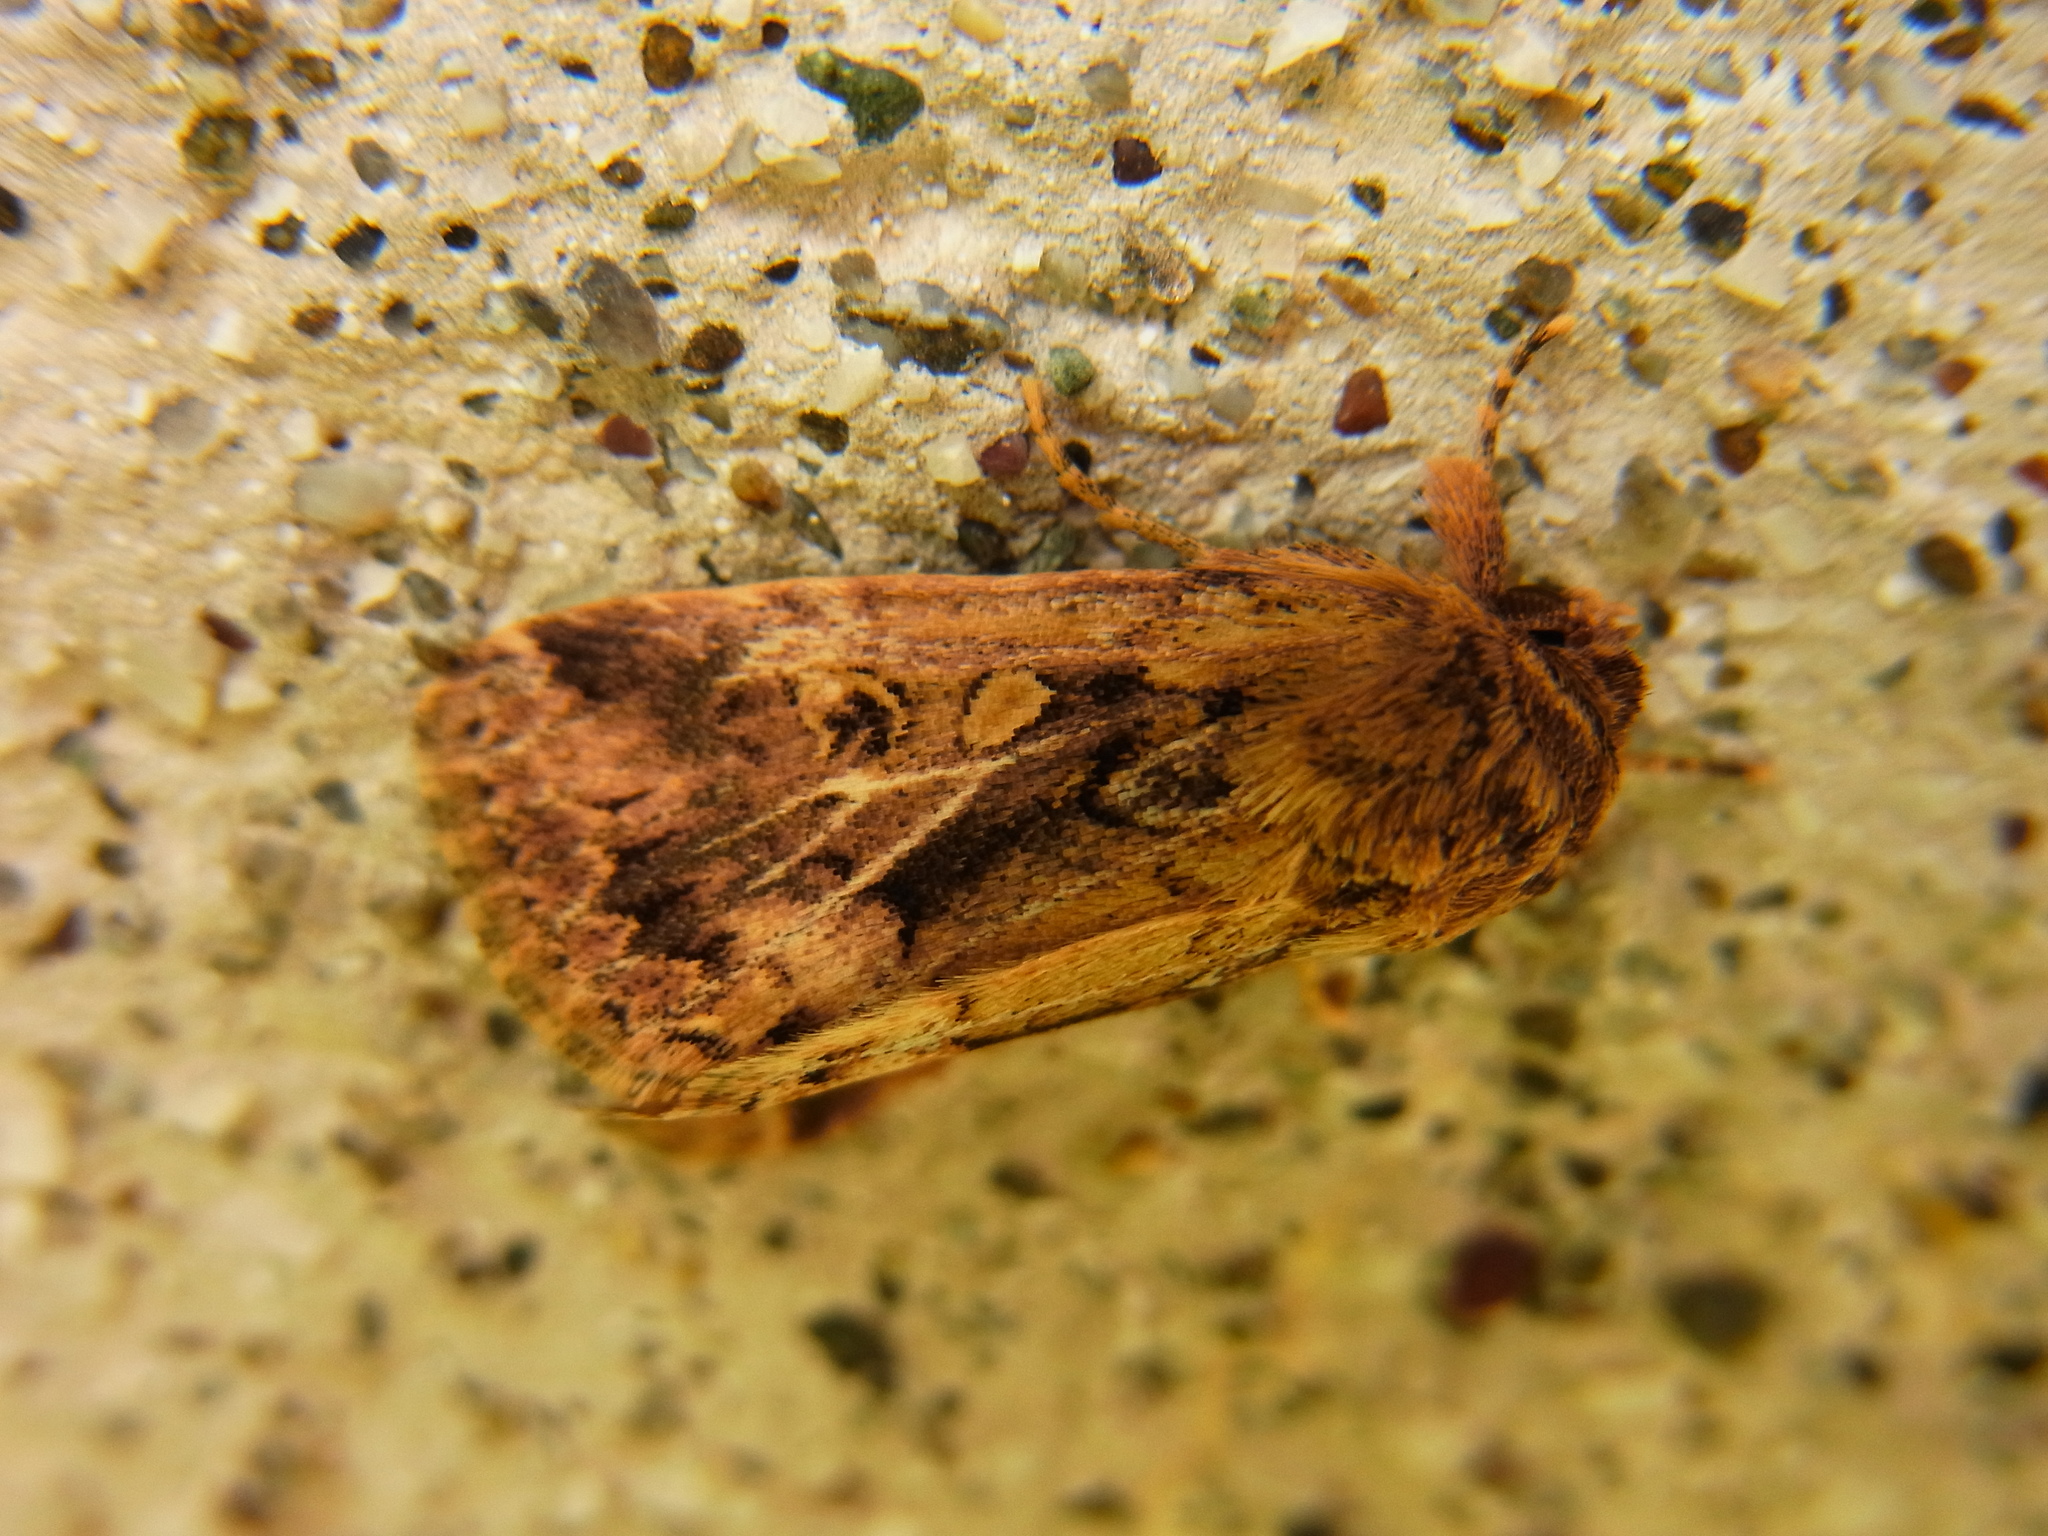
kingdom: Animalia
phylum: Arthropoda
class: Insecta
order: Lepidoptera
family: Noctuidae
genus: Spodoptera
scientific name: Spodoptera depravata
